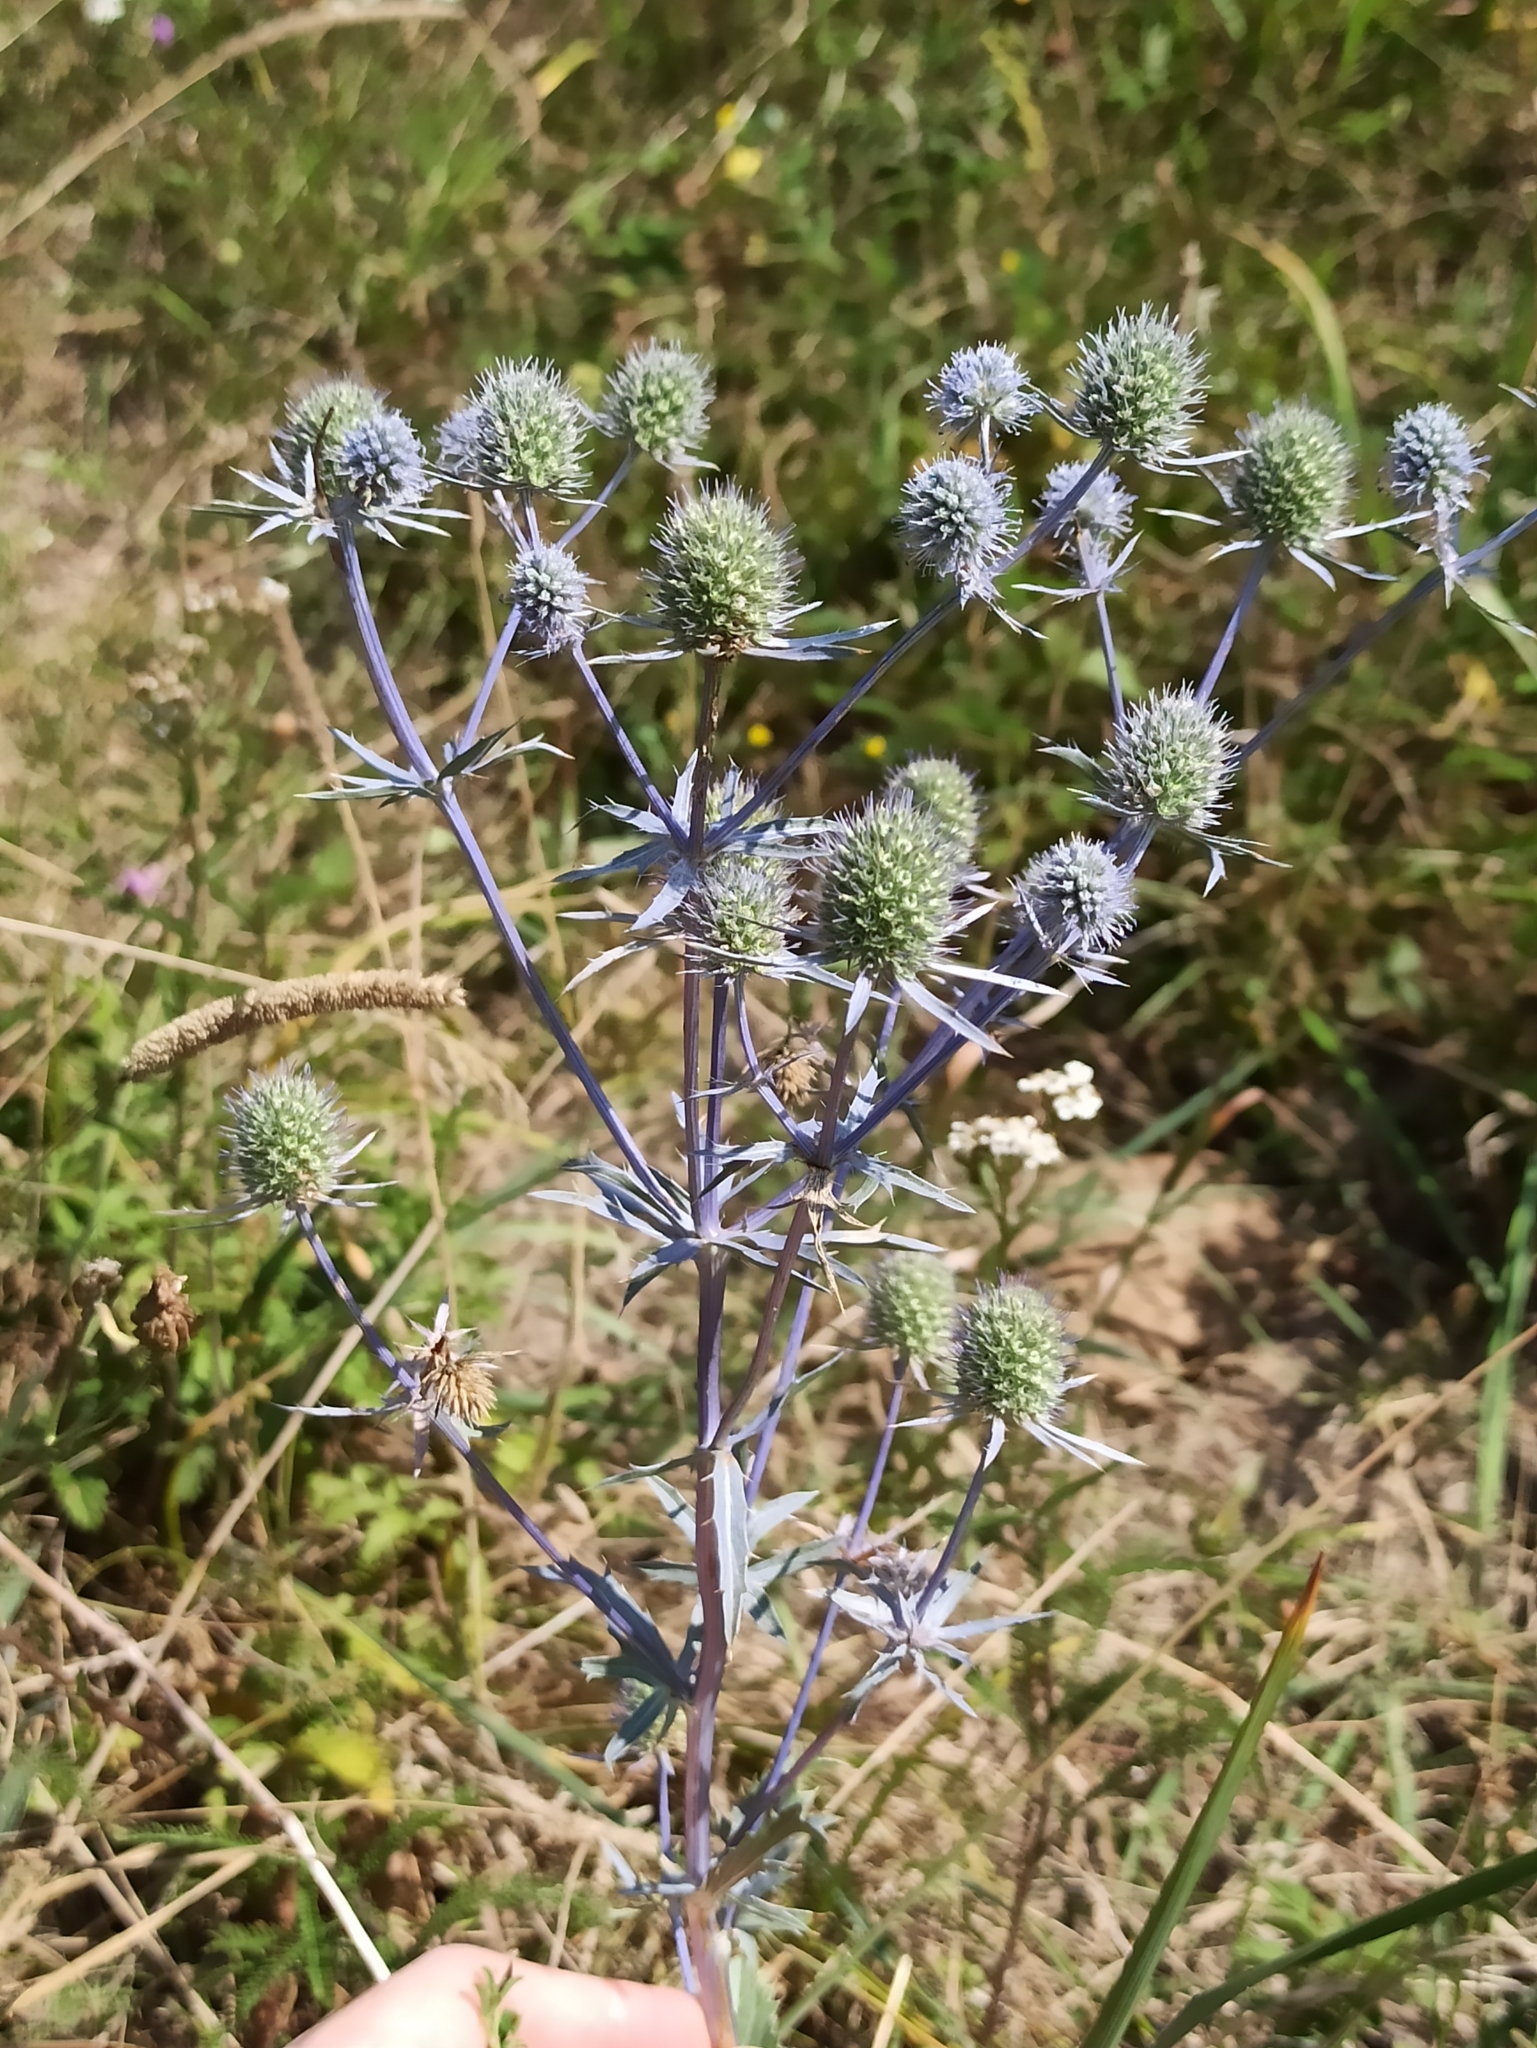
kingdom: Plantae
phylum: Tracheophyta
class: Magnoliopsida
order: Apiales
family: Apiaceae
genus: Eryngium
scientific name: Eryngium planum
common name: Blue eryngo
